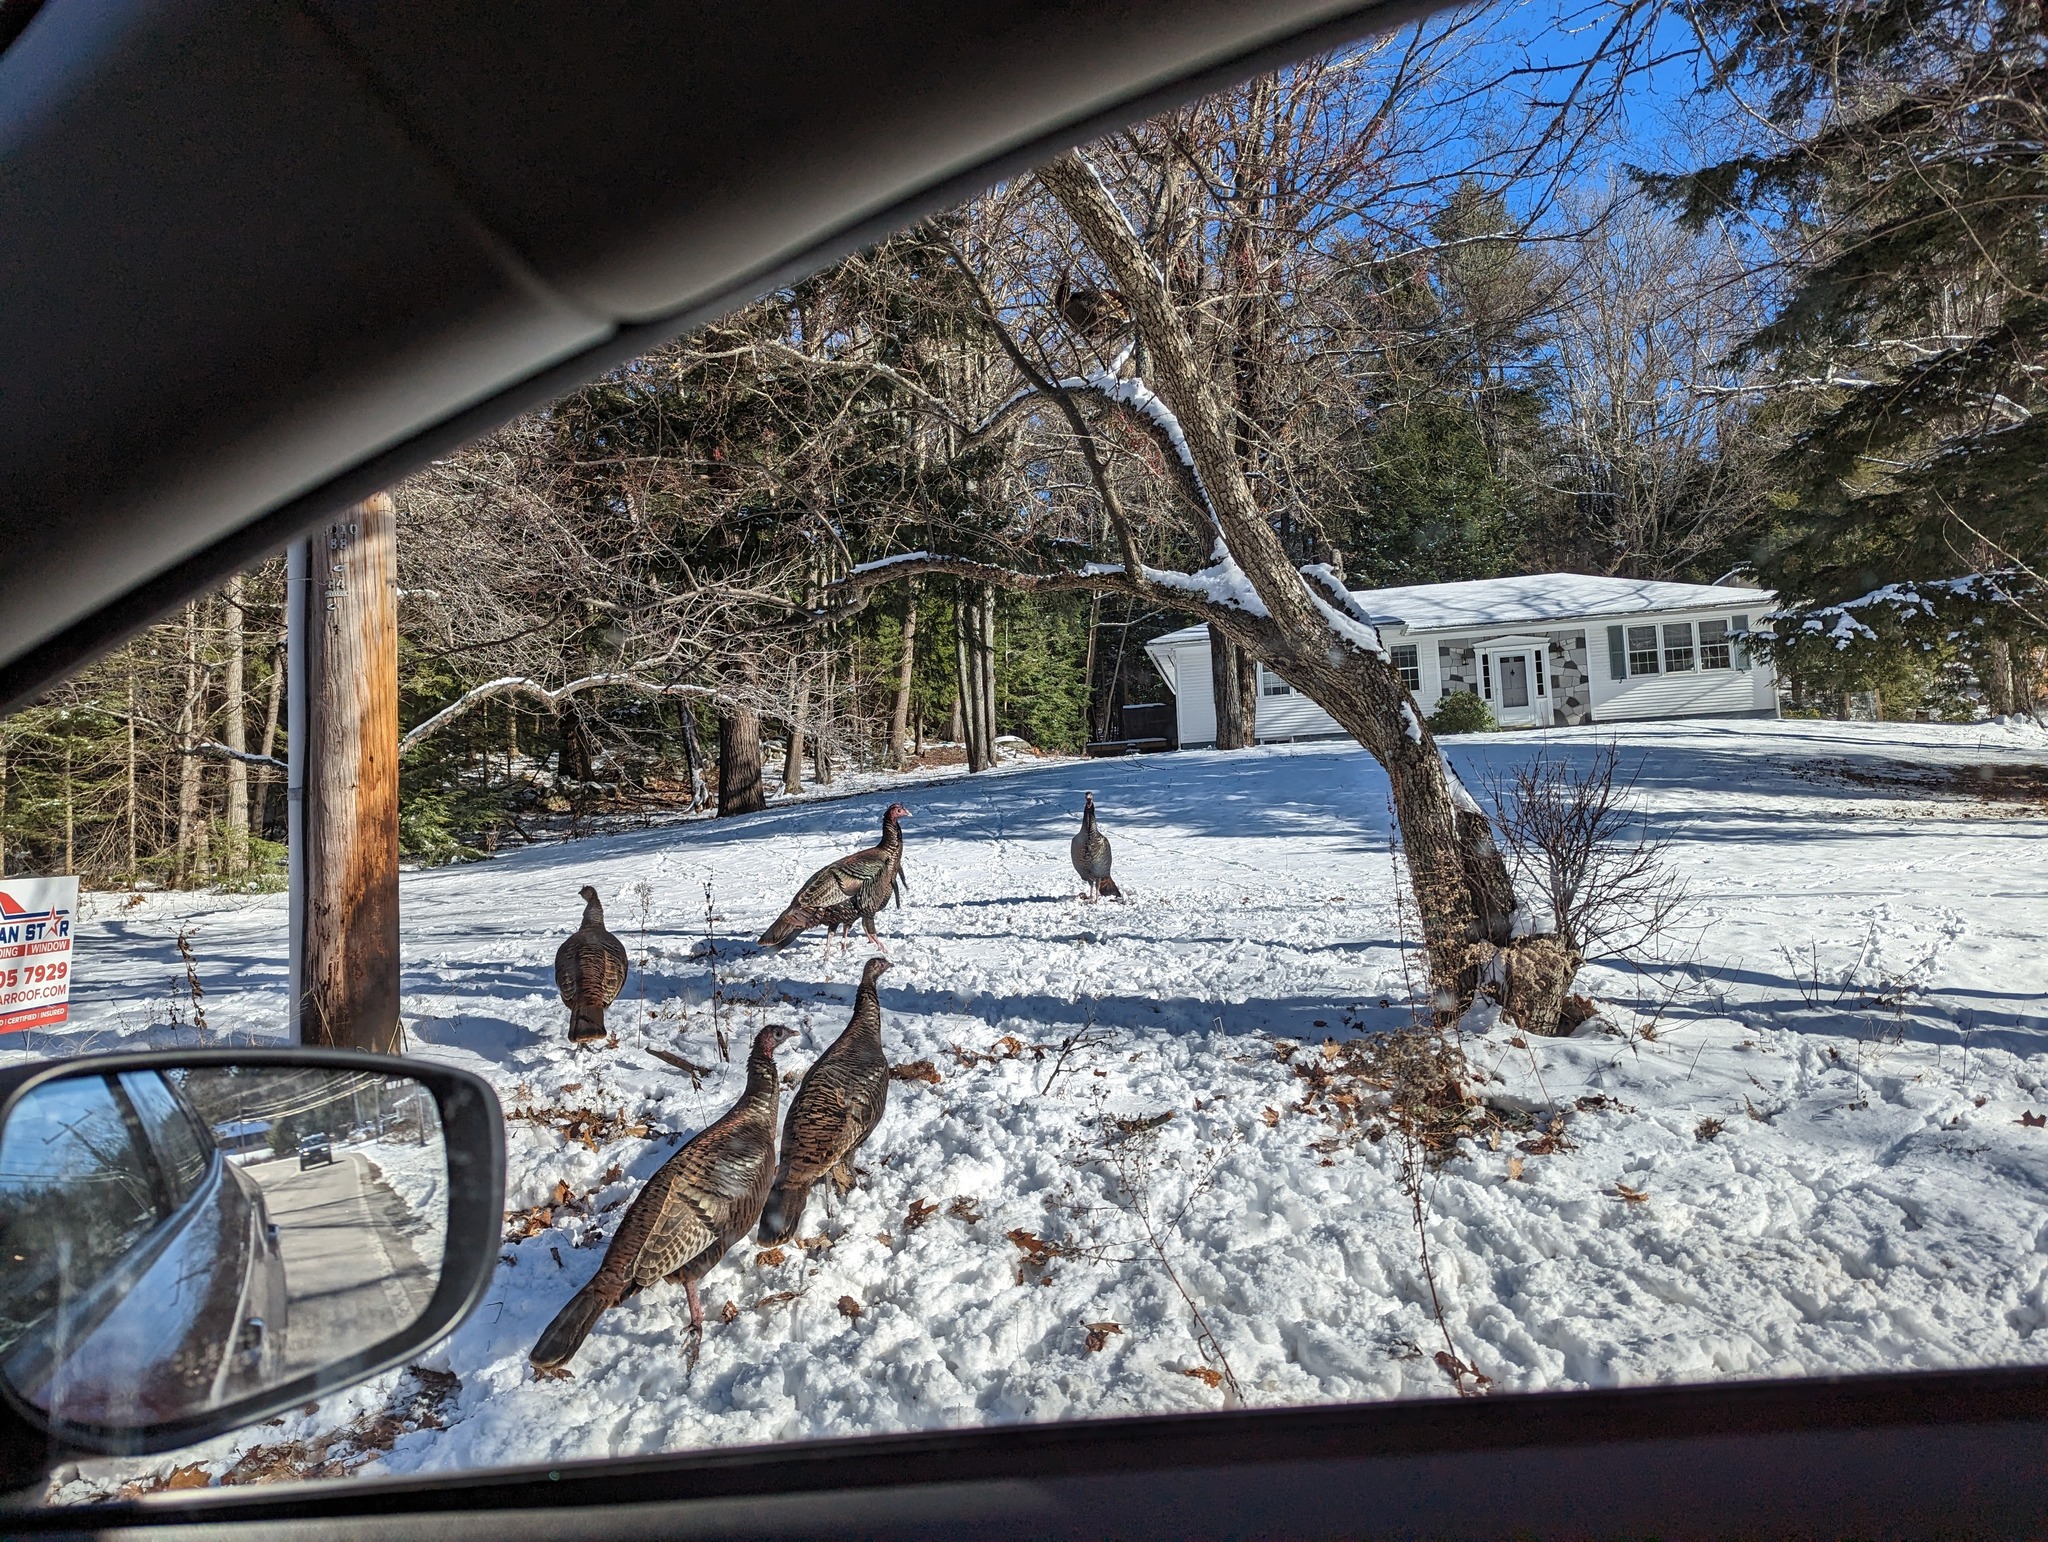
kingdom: Animalia
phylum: Chordata
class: Aves
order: Galliformes
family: Phasianidae
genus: Meleagris
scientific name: Meleagris gallopavo
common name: Wild turkey
